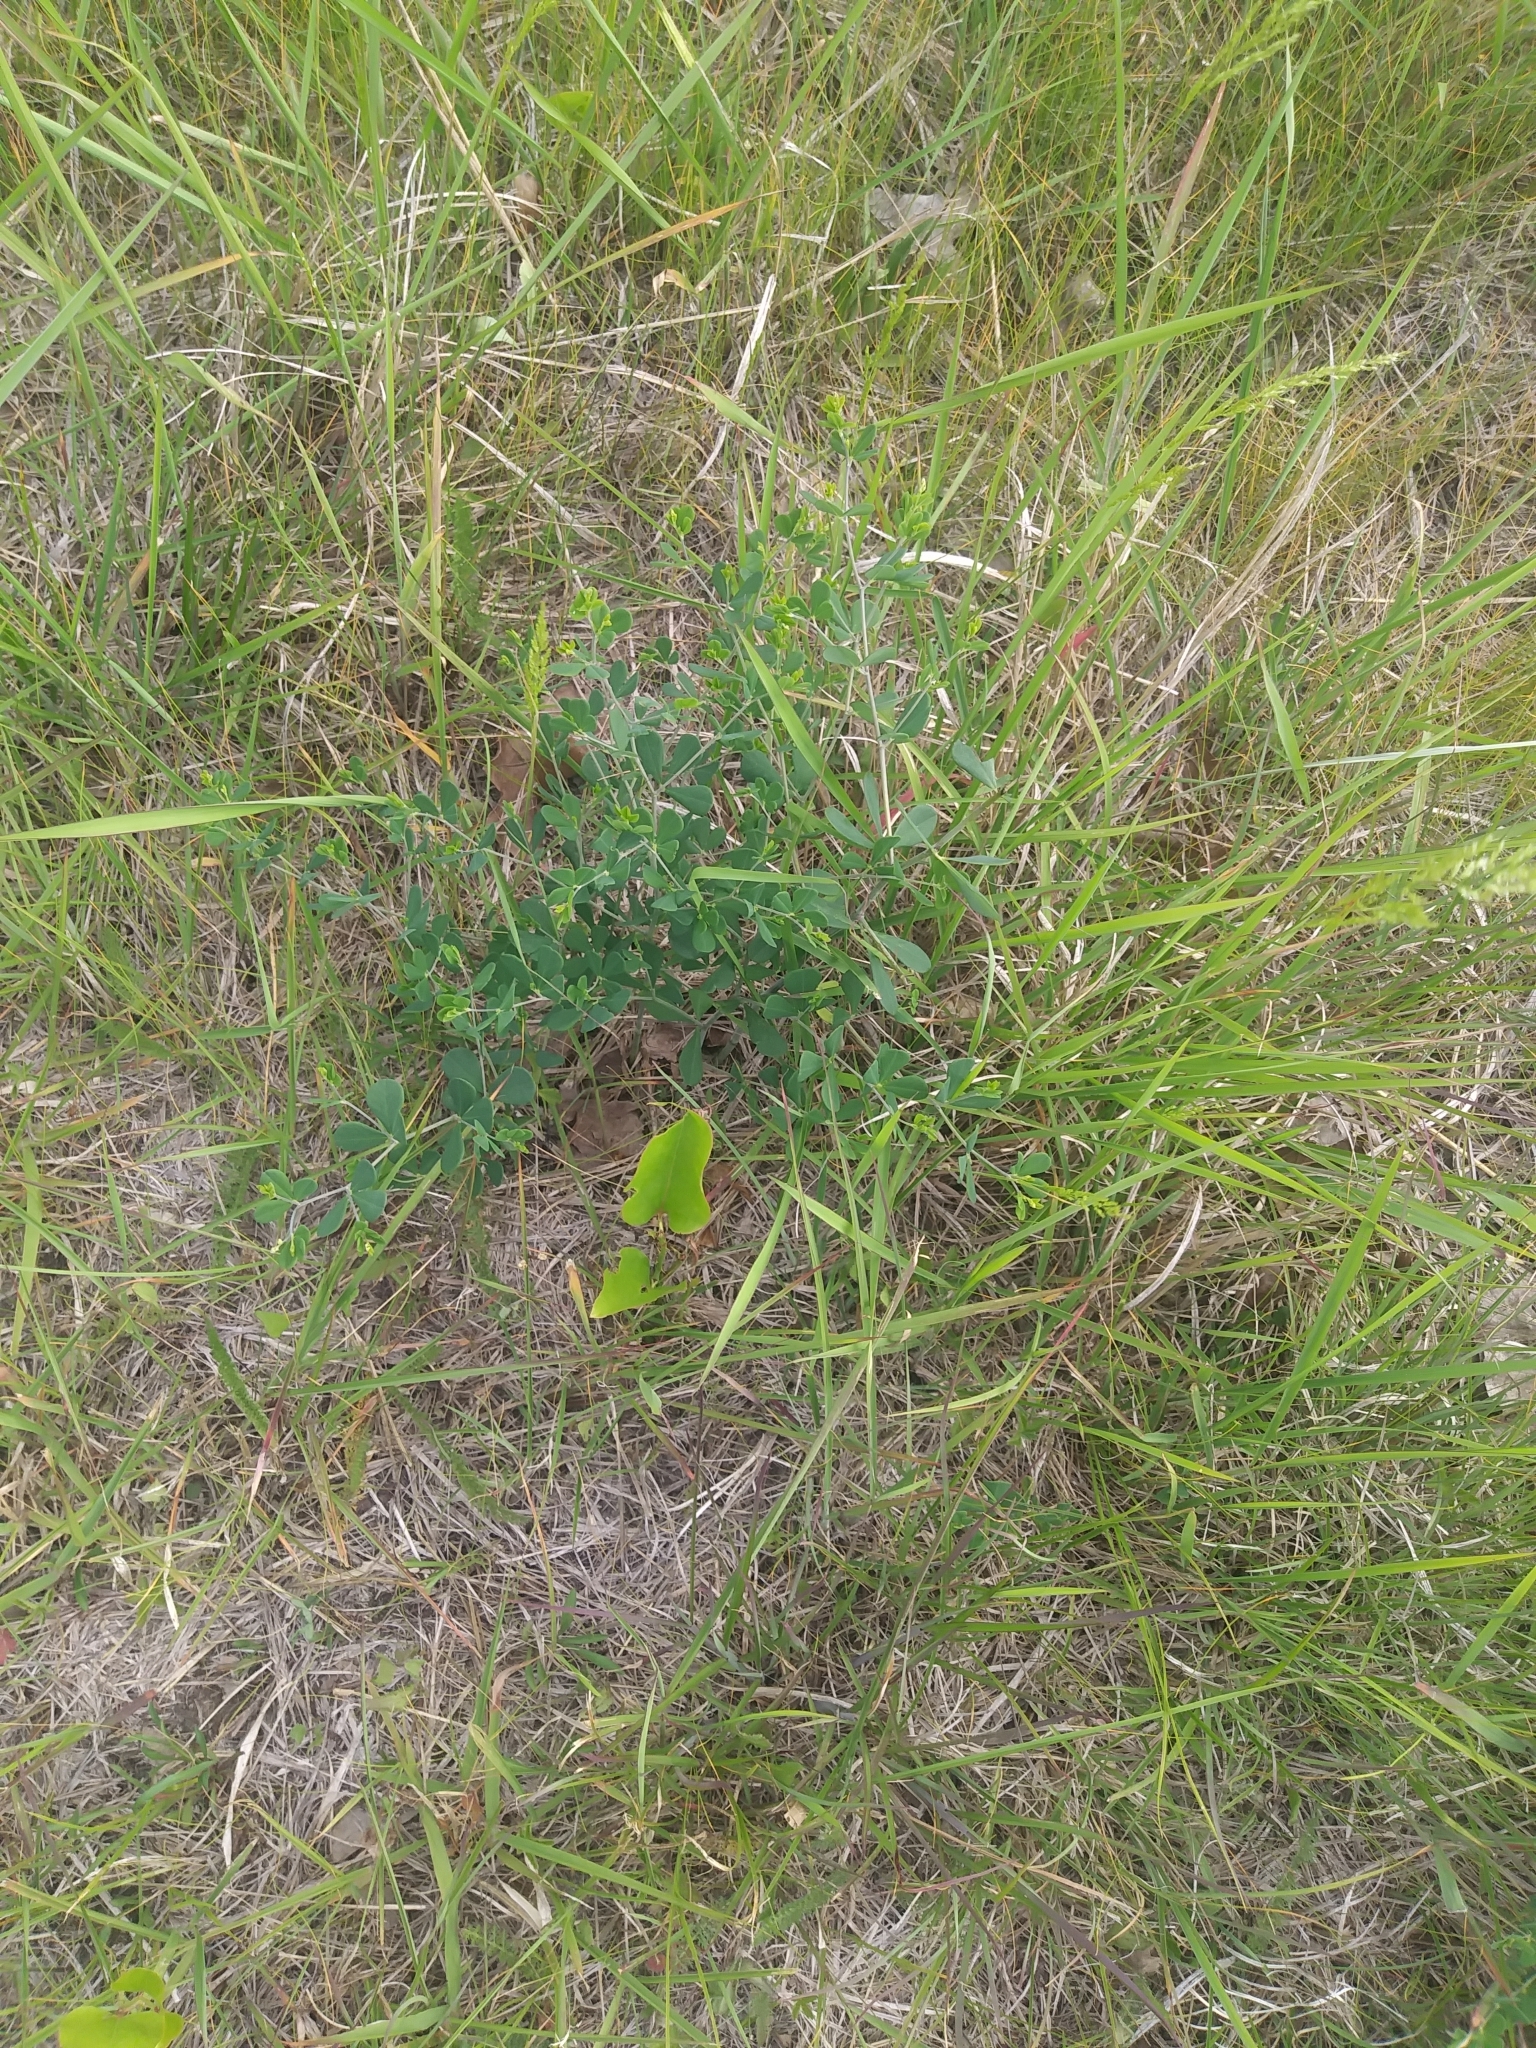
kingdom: Plantae
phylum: Tracheophyta
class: Magnoliopsida
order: Fabales
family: Fabaceae
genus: Baptisia
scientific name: Baptisia tinctoria
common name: Wild indigo
